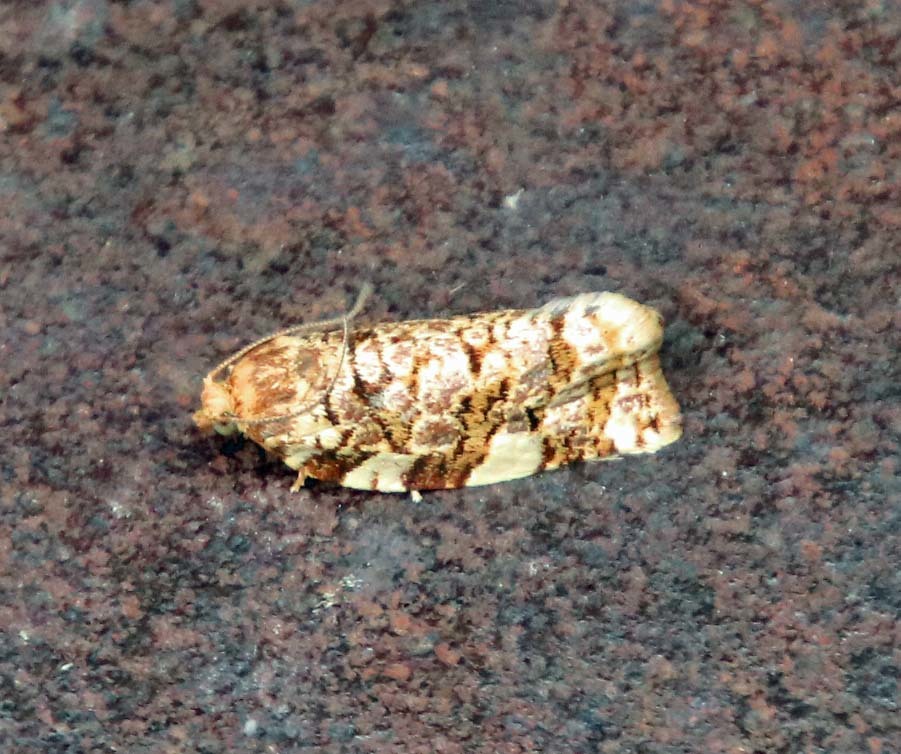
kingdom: Animalia
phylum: Arthropoda
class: Insecta
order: Lepidoptera
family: Tortricidae
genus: Archips
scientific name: Archips argyrospila
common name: Fruit-tree leafroller moth
